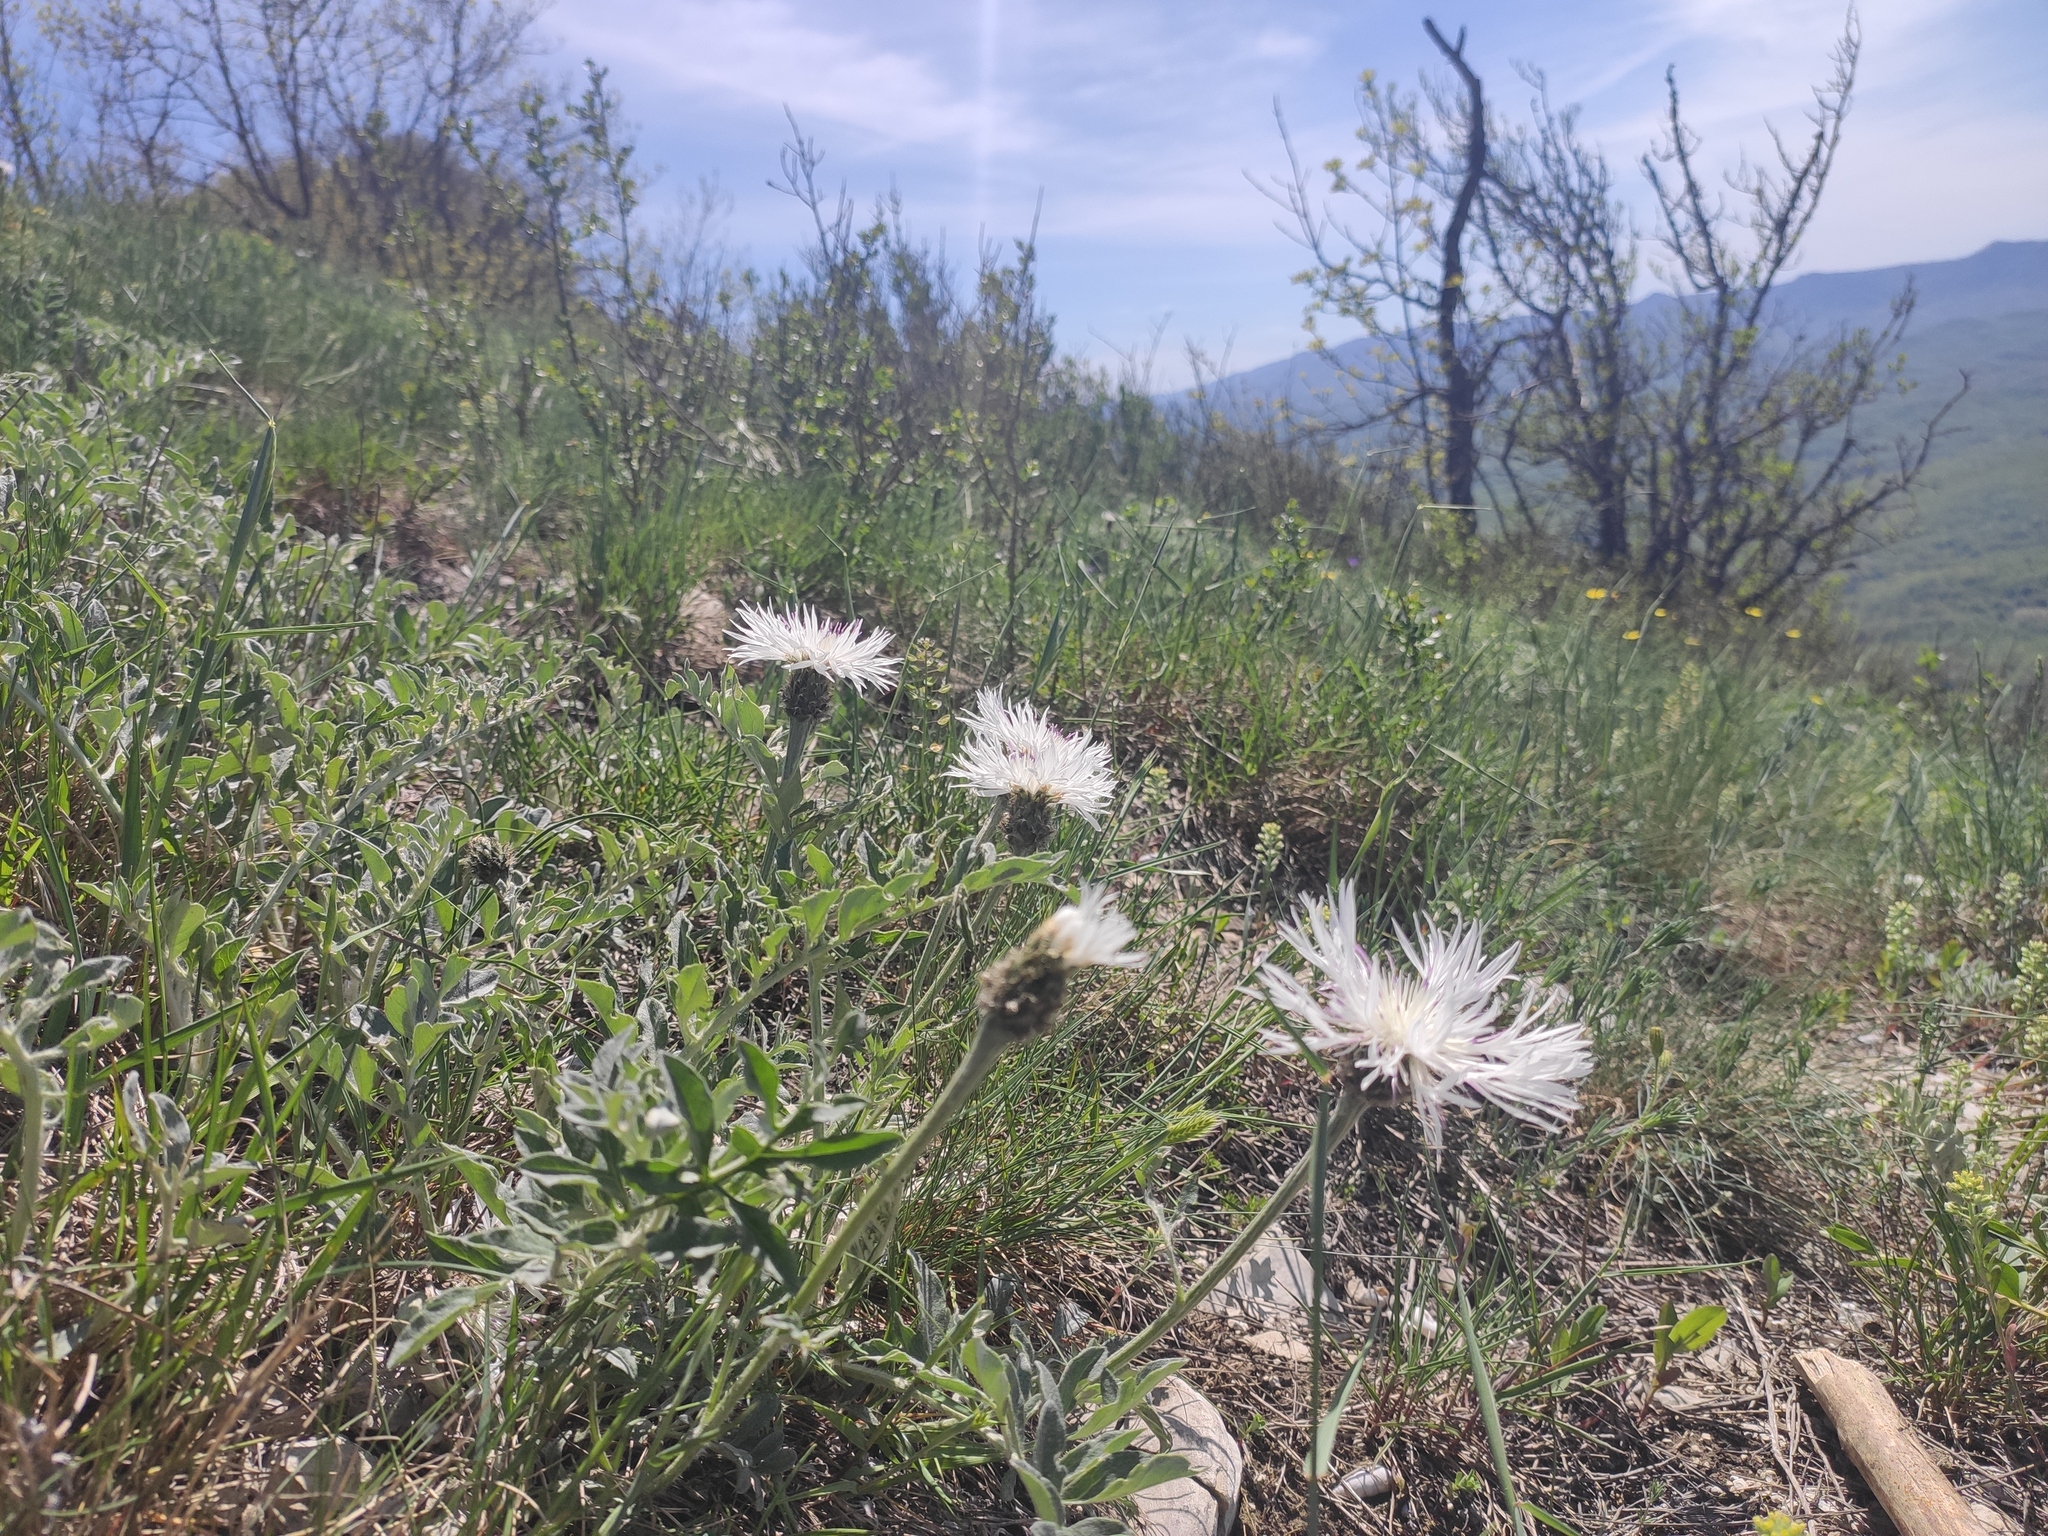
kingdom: Plantae
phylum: Tracheophyta
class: Magnoliopsida
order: Asterales
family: Asteraceae
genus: Psephellus
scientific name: Psephellus declinatus
